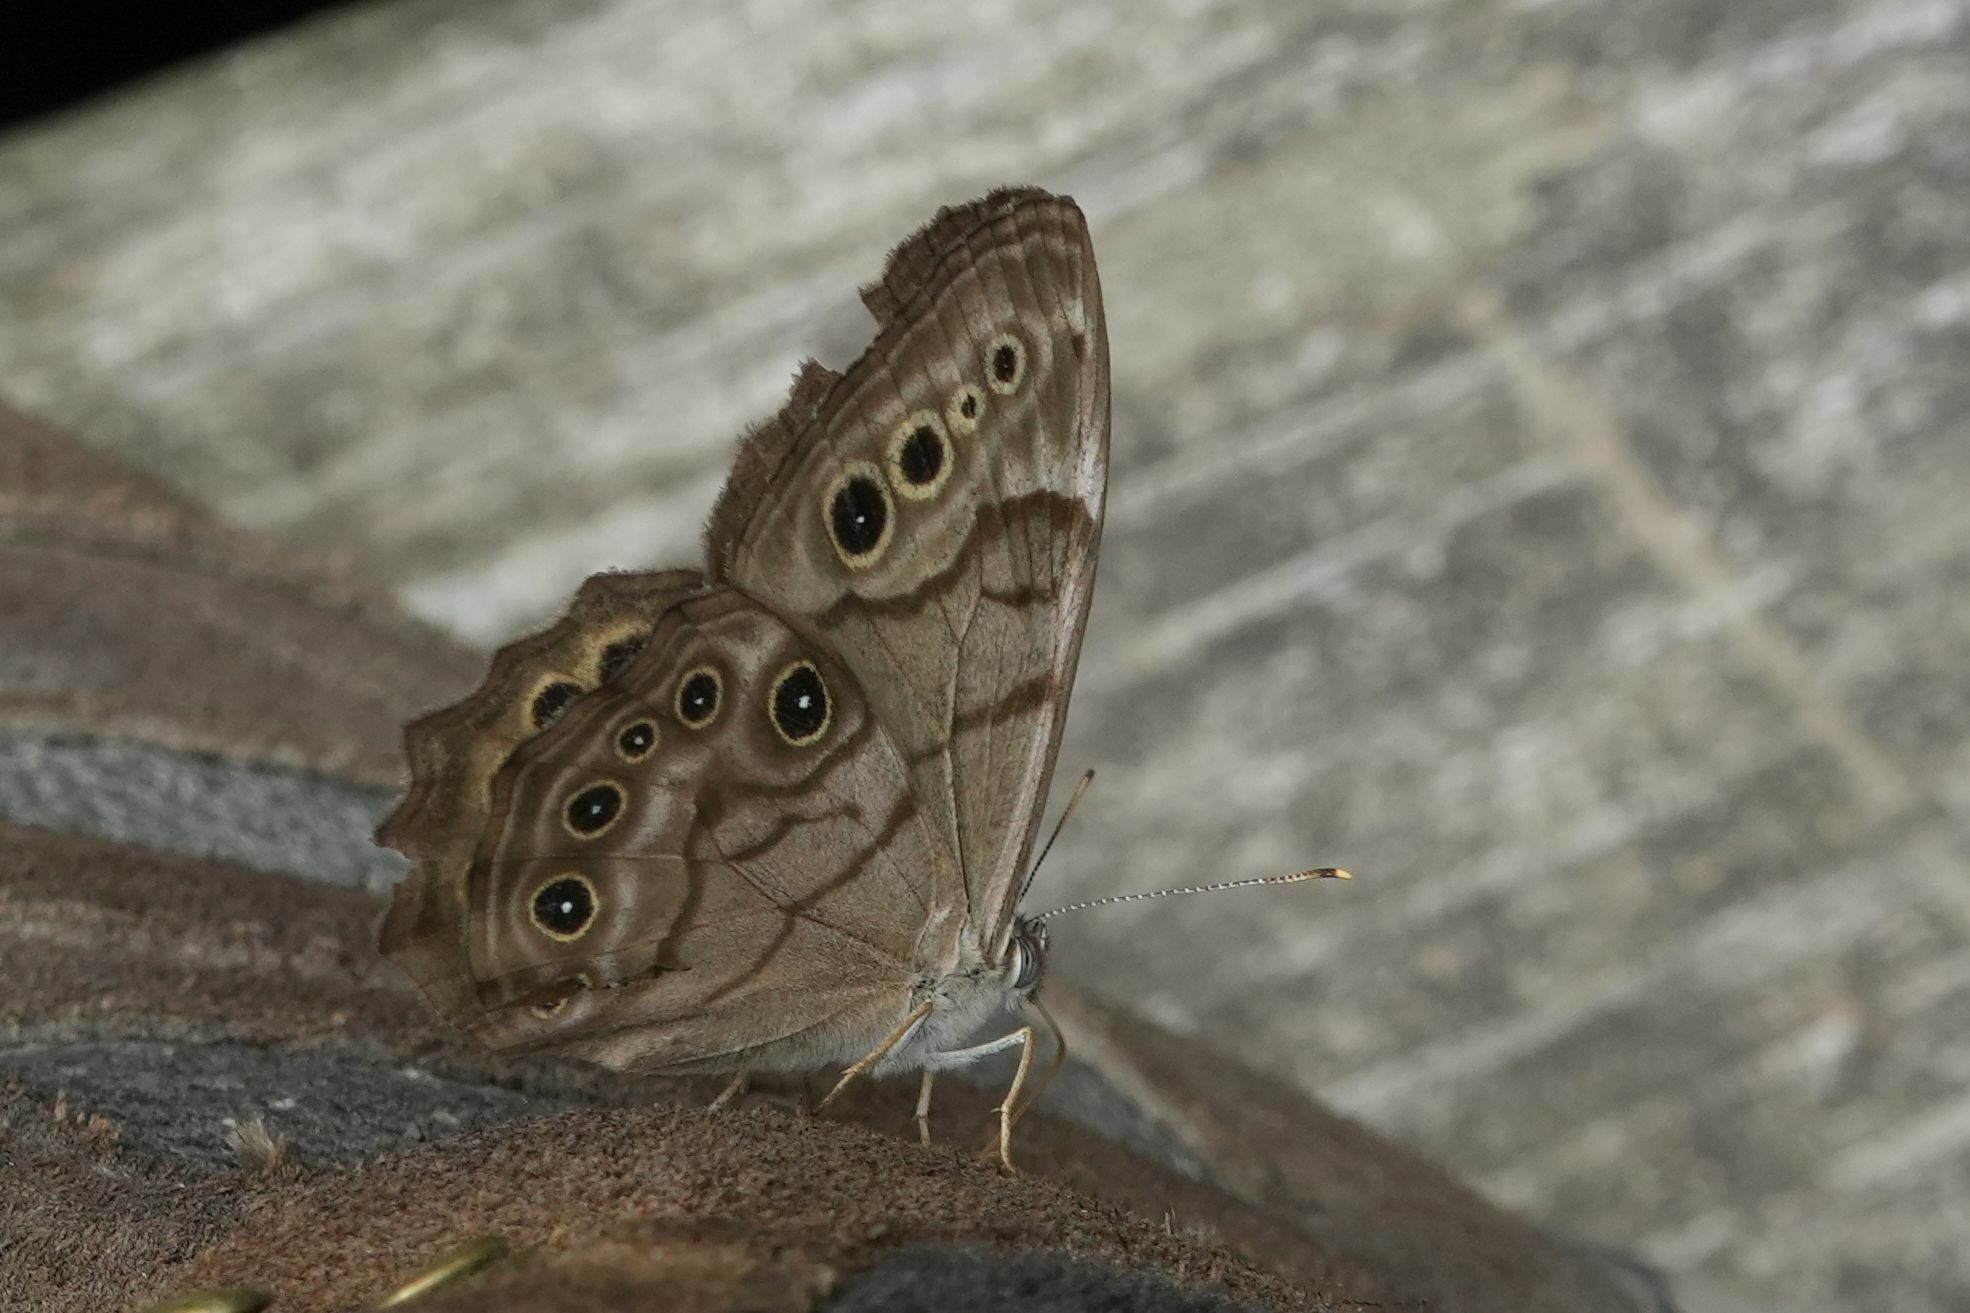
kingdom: Animalia
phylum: Arthropoda
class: Insecta
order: Lepidoptera
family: Nymphalidae
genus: Lethe
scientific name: Lethe anthedon
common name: Northern pearly-eye
